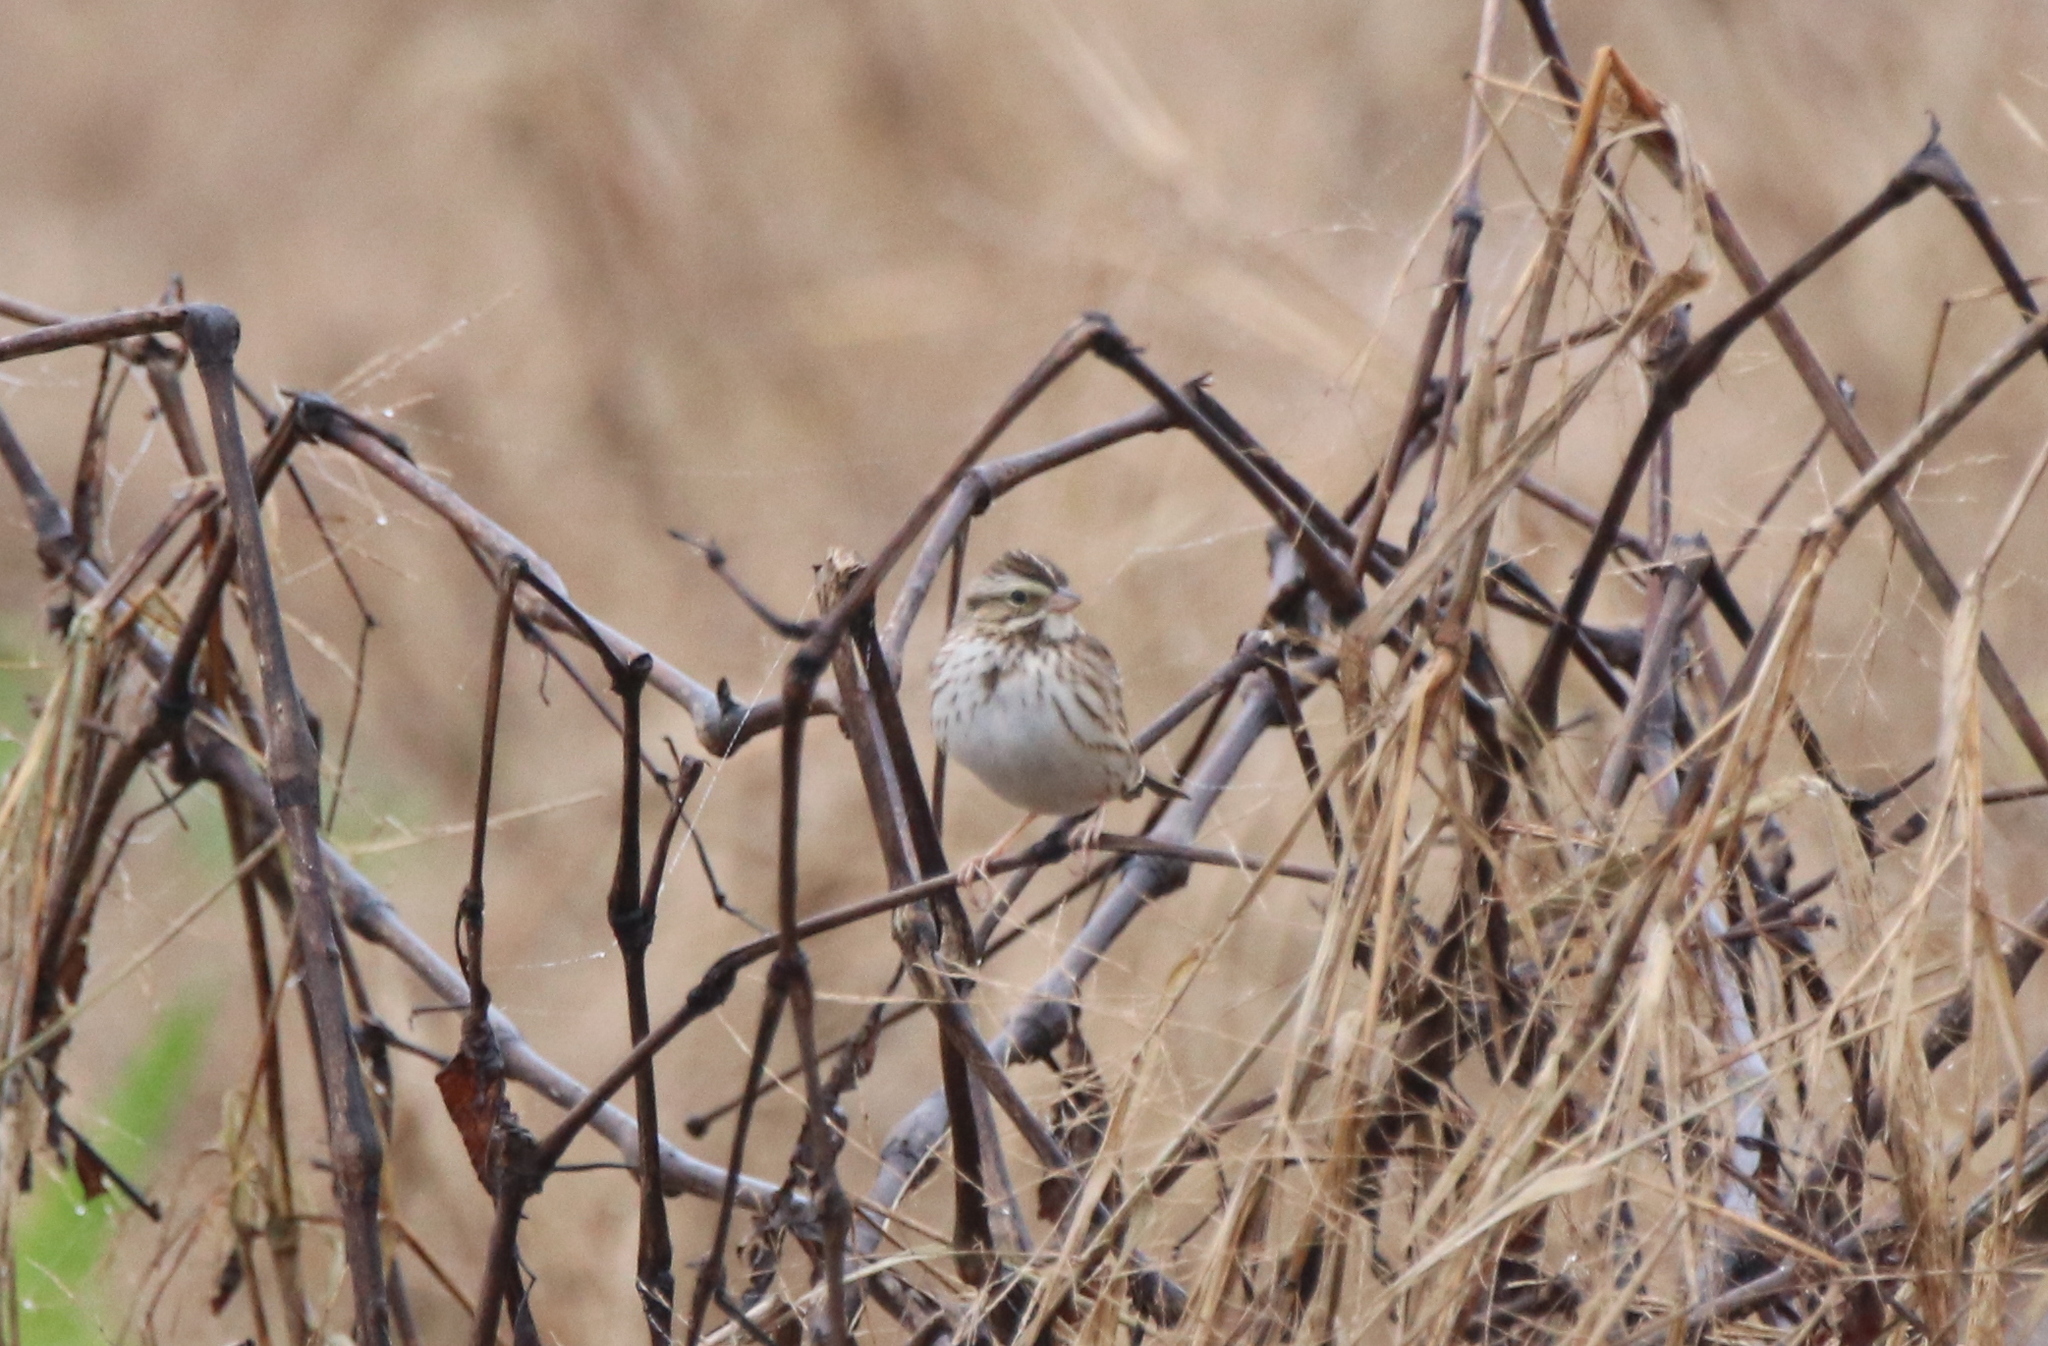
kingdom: Animalia
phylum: Chordata
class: Aves
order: Passeriformes
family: Passerellidae
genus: Passerculus
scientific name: Passerculus sandwichensis
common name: Savannah sparrow
